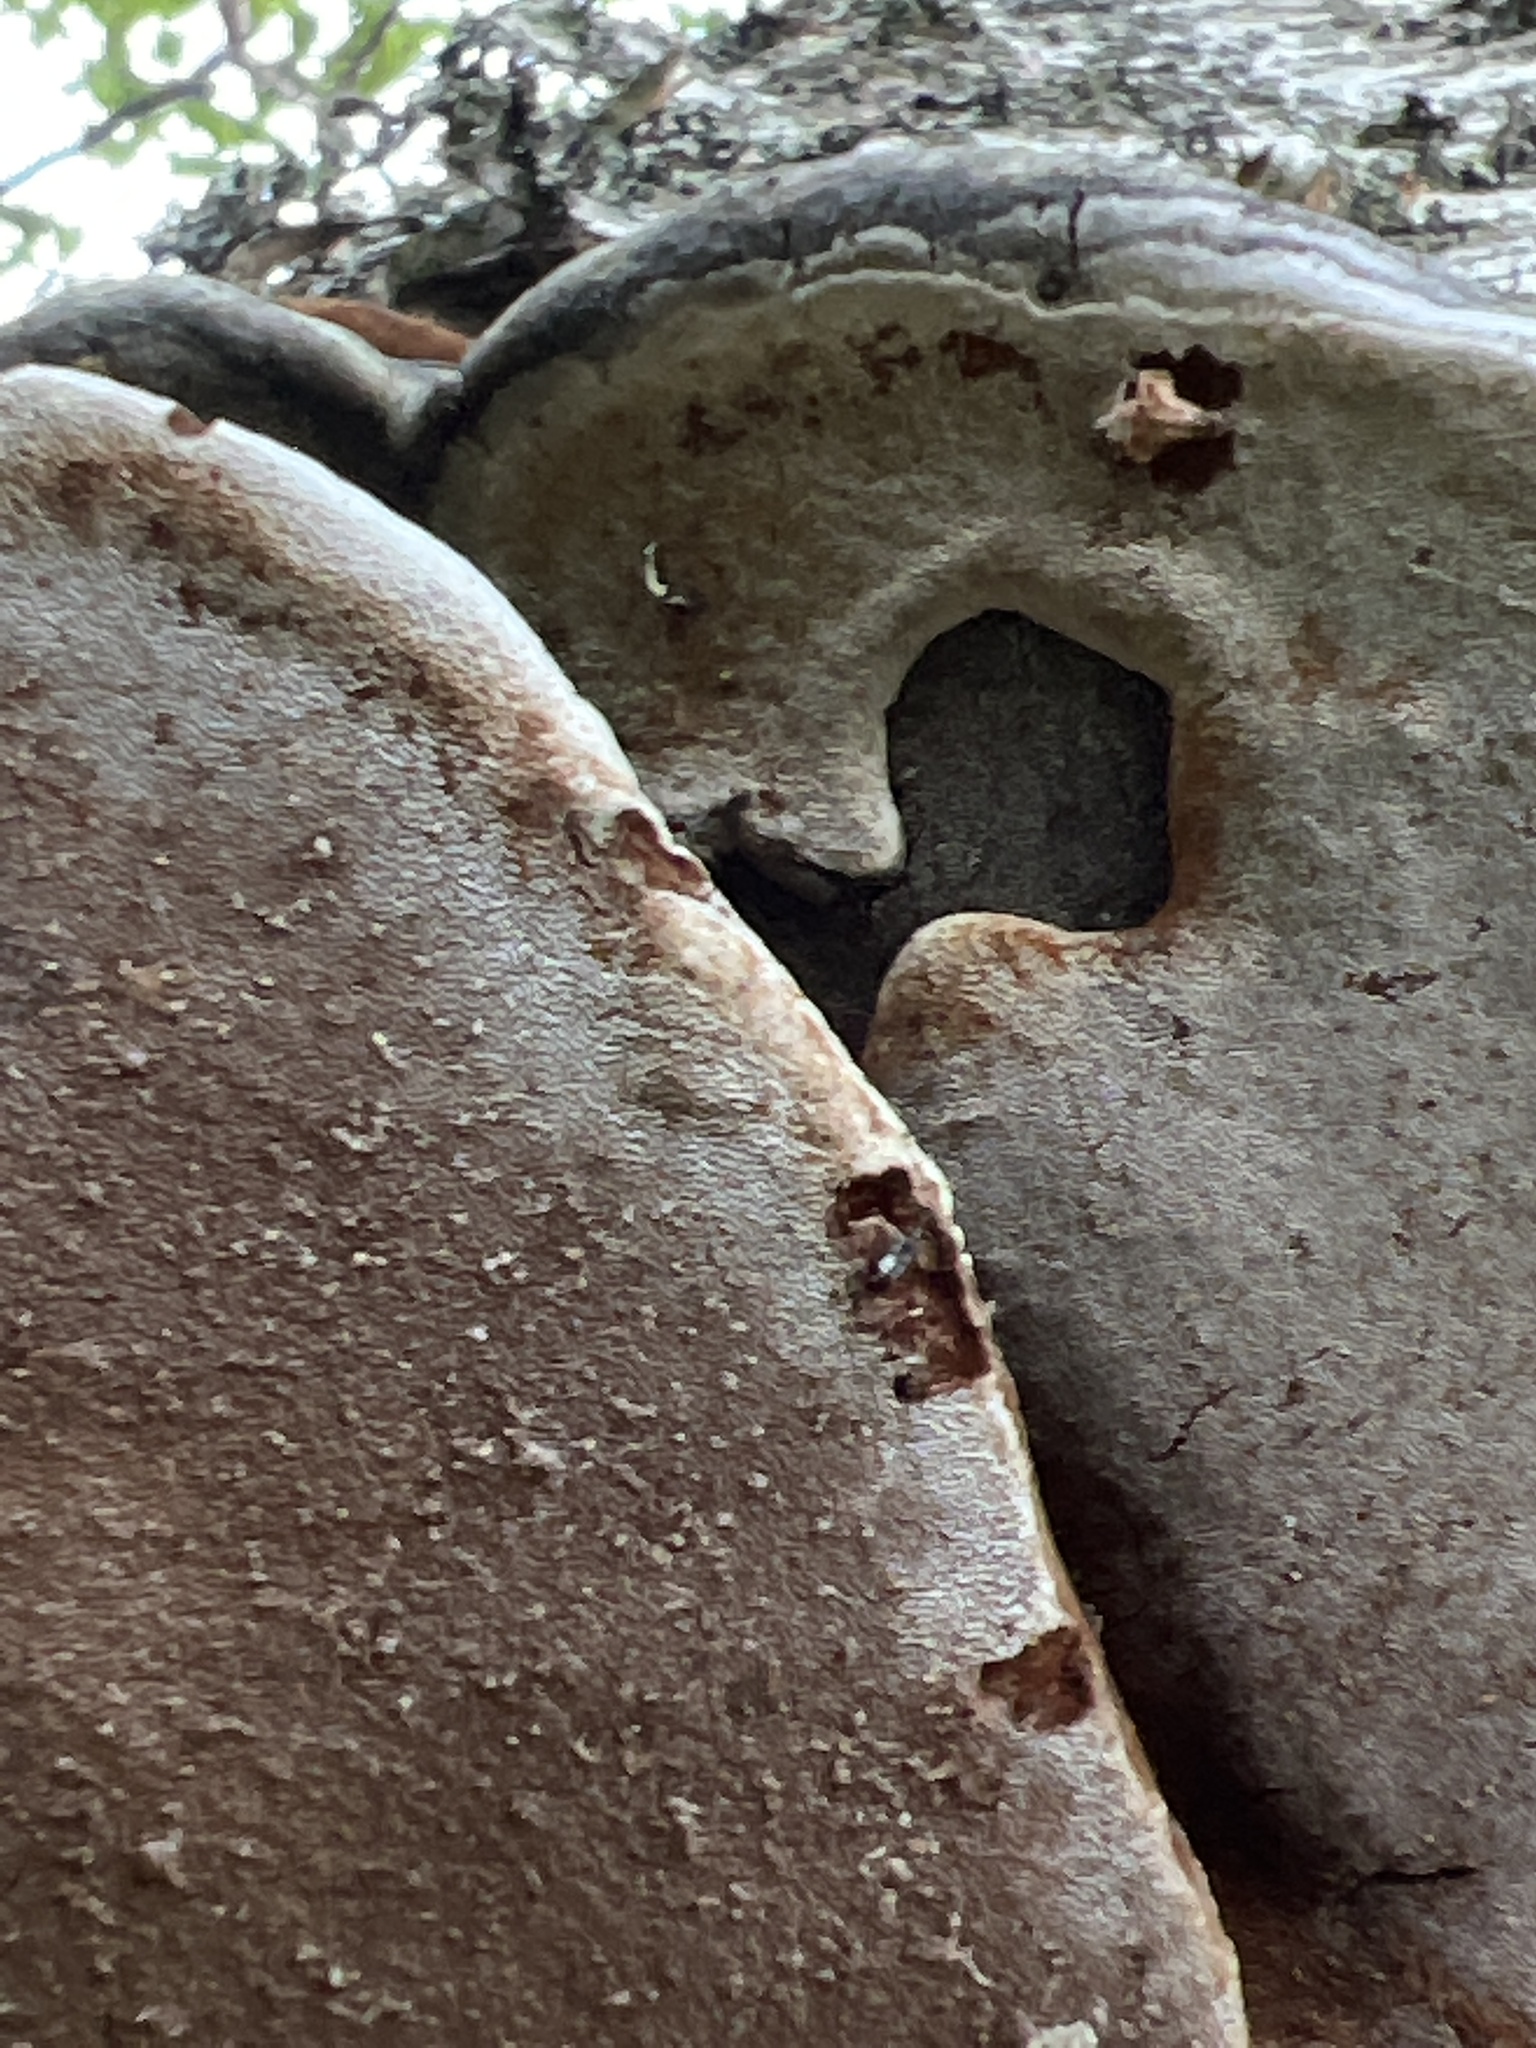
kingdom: Fungi
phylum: Basidiomycota
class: Agaricomycetes
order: Hymenochaetales
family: Hymenochaetaceae
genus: Phellinus
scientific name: Phellinus igniarius
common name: Willow bracket
